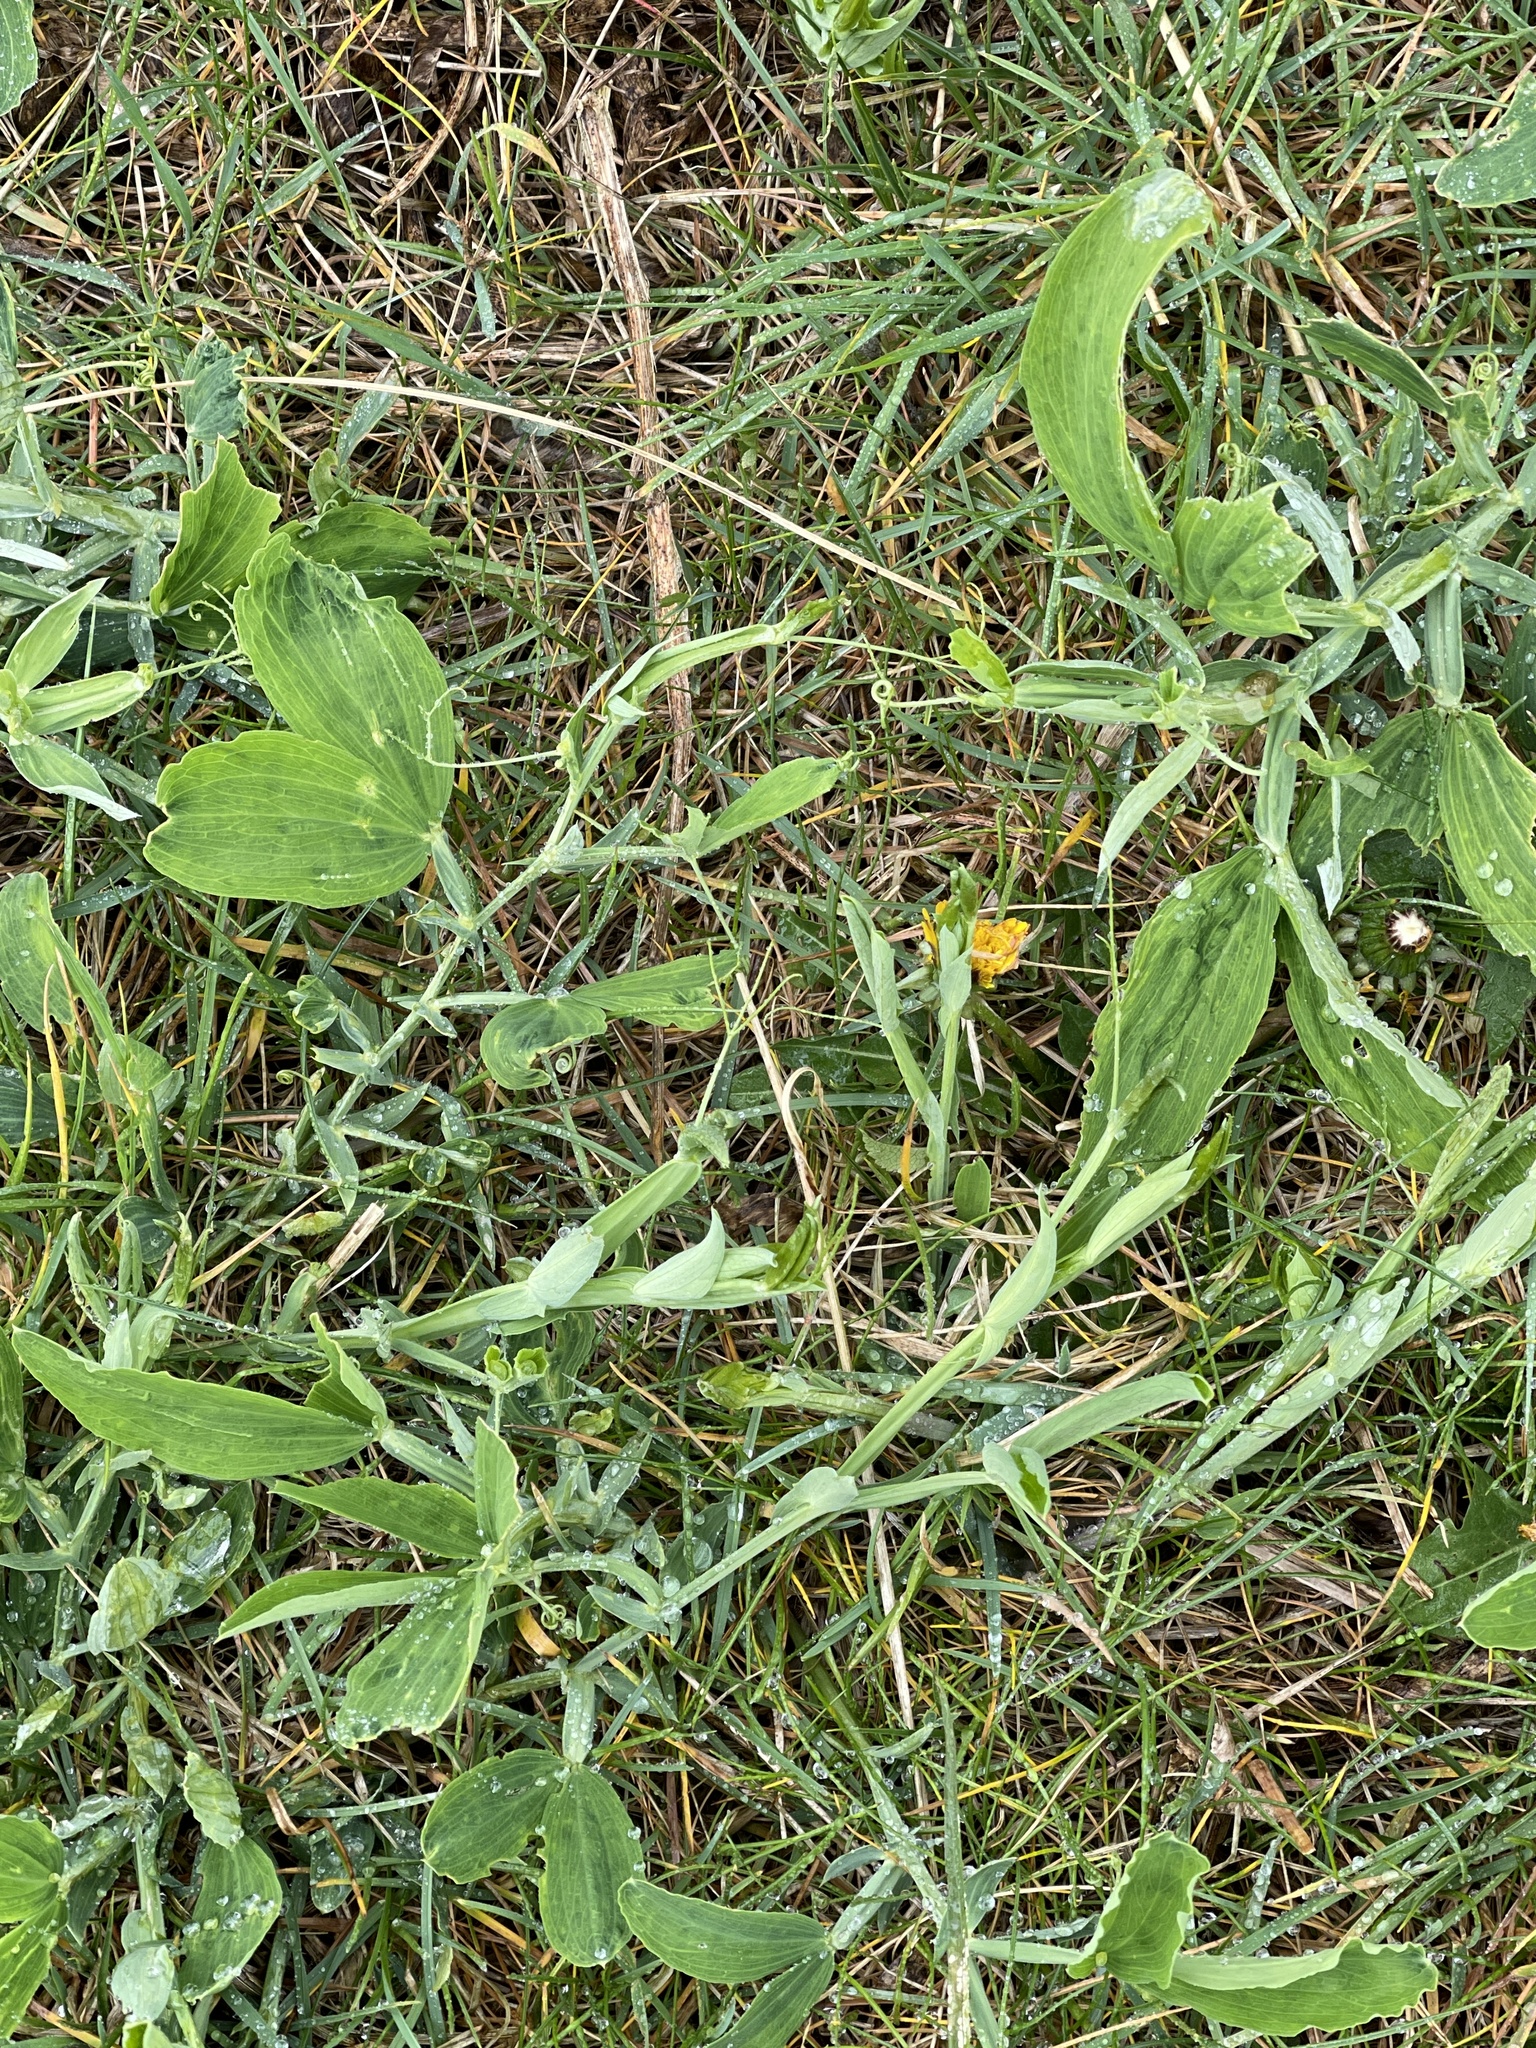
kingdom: Plantae
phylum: Tracheophyta
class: Magnoliopsida
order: Fabales
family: Fabaceae
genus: Lathyrus
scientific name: Lathyrus latifolius
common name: Perennial pea
